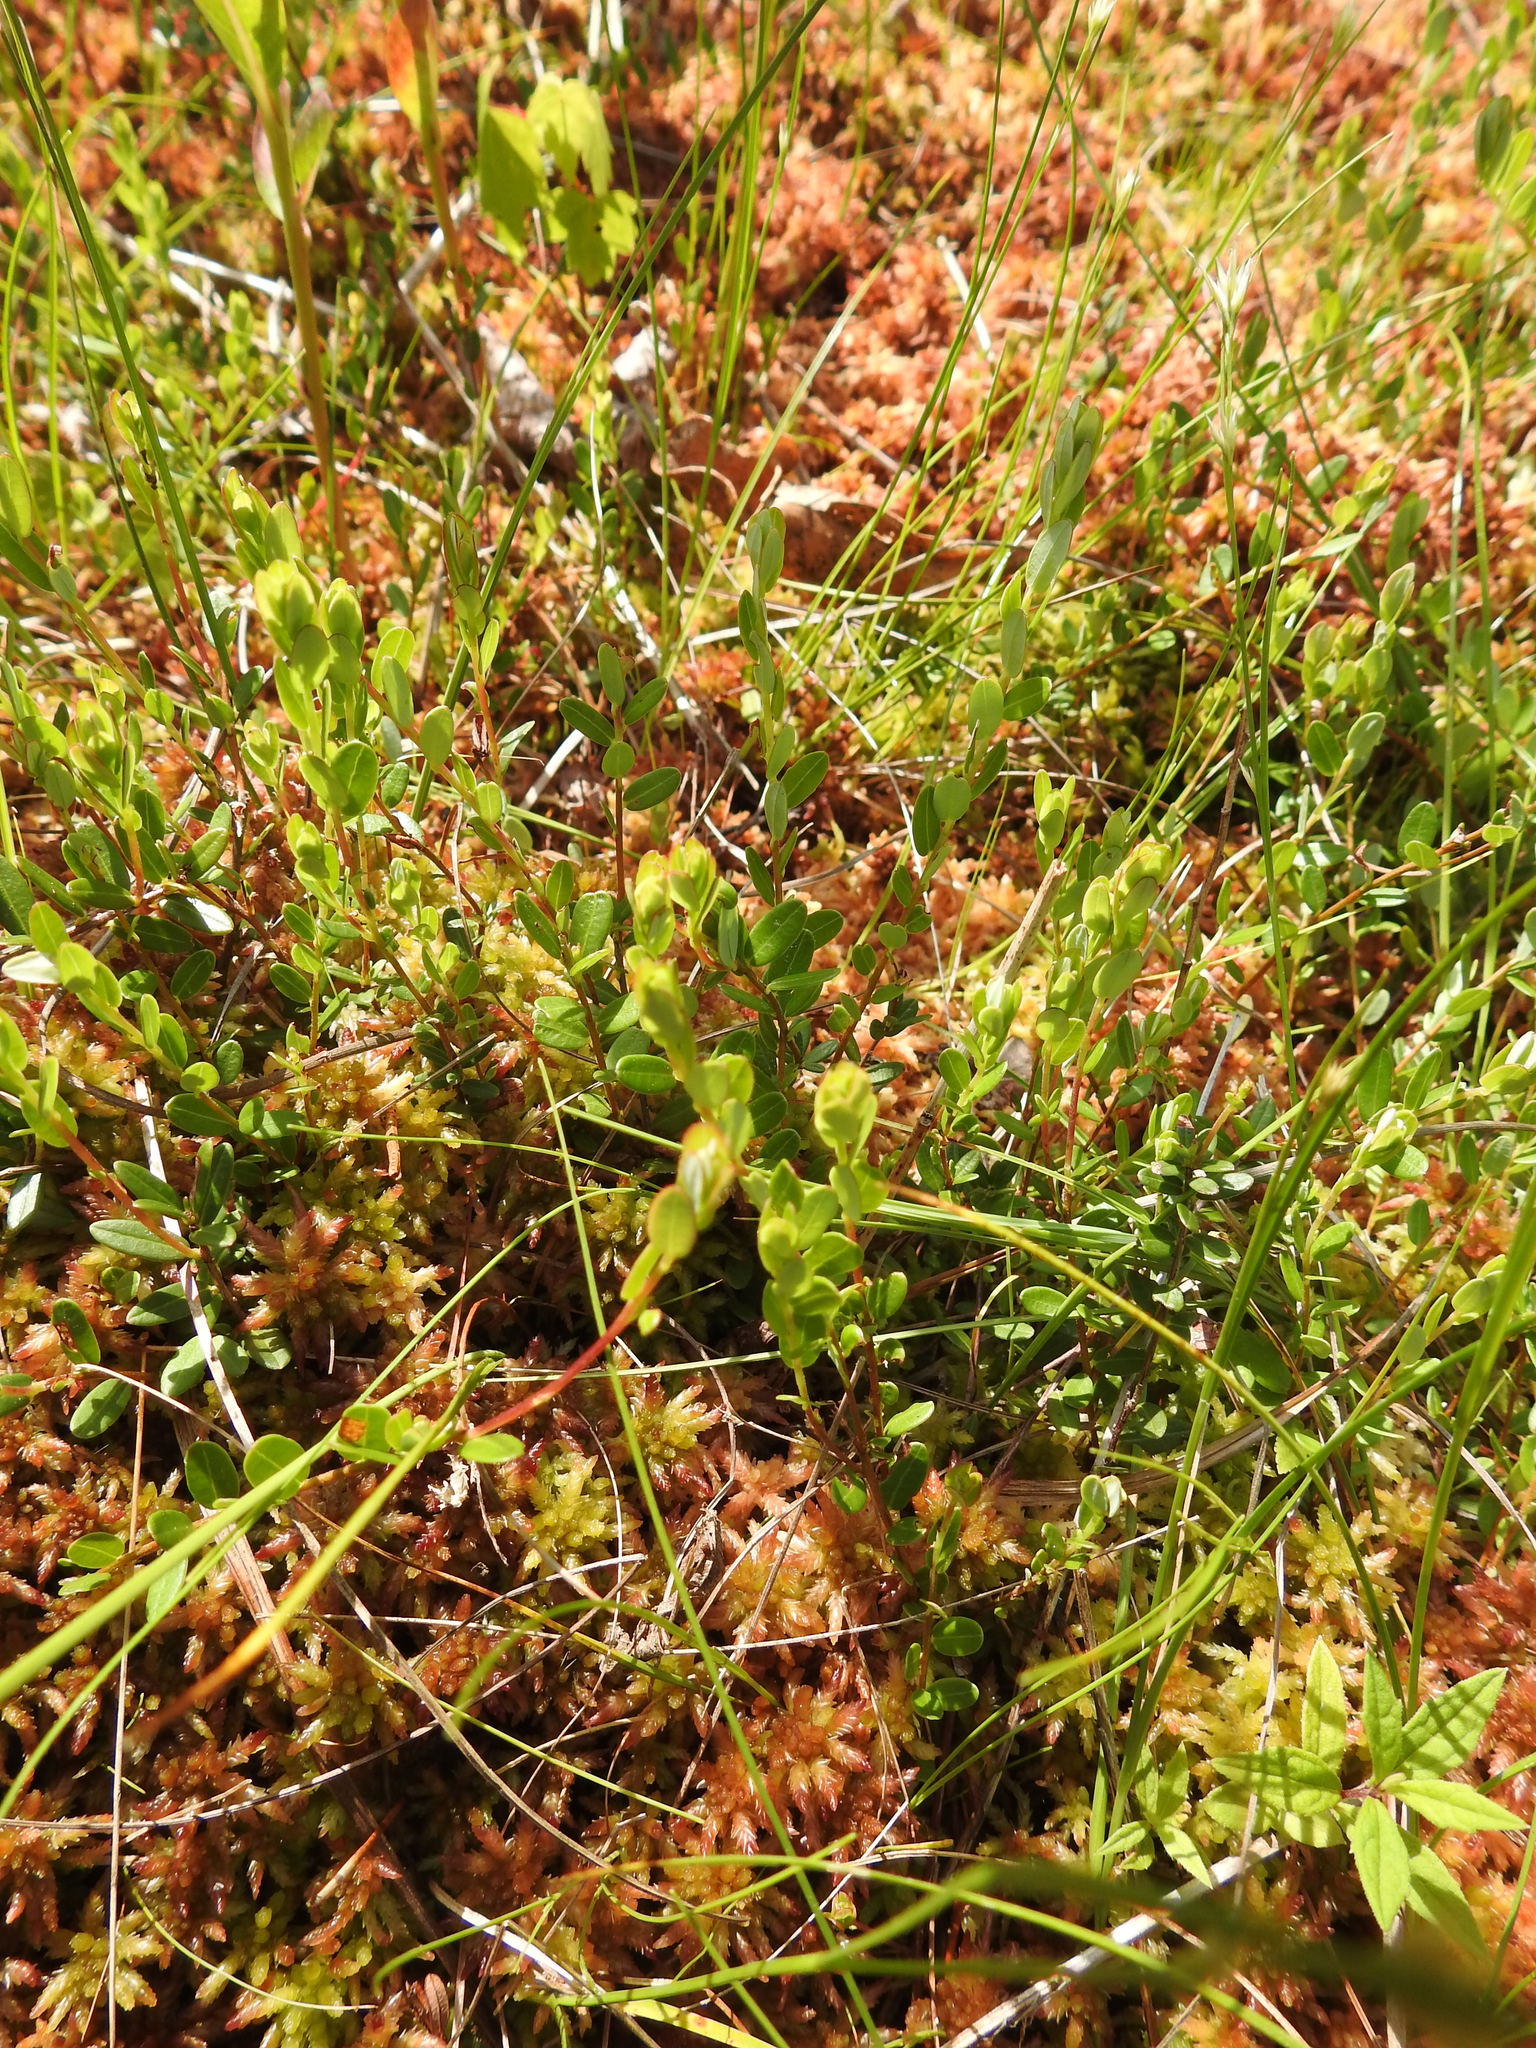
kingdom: Plantae
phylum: Tracheophyta
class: Magnoliopsida
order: Ericales
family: Ericaceae
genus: Vaccinium
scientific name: Vaccinium macrocarpon
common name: American cranberry
